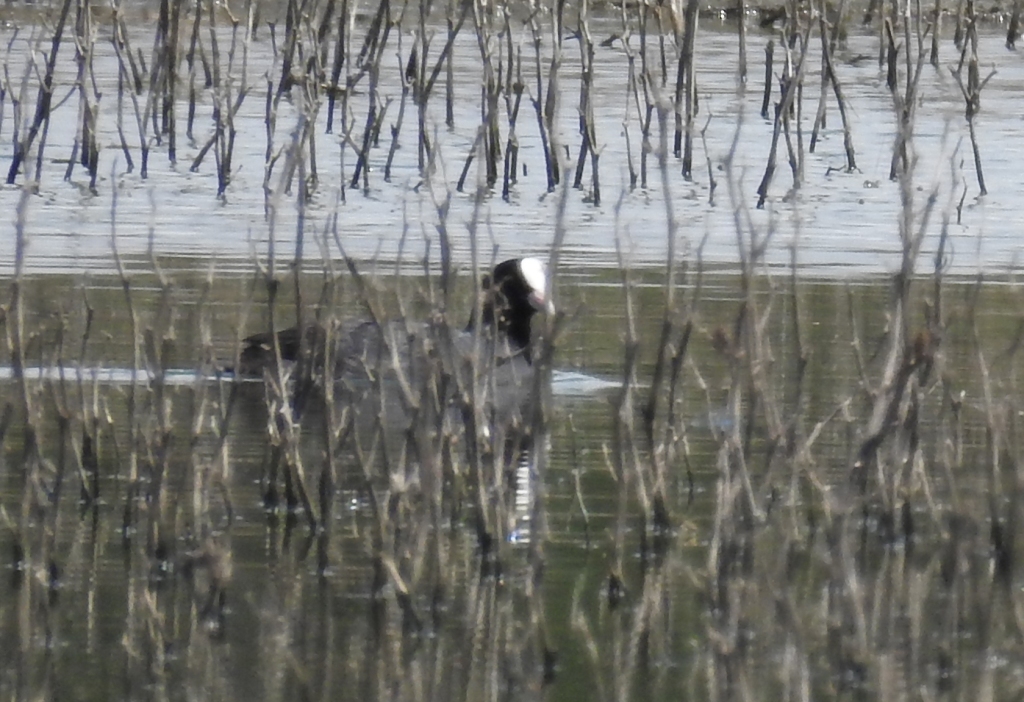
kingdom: Animalia
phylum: Chordata
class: Aves
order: Gruiformes
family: Rallidae
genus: Fulica
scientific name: Fulica atra
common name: Eurasian coot
